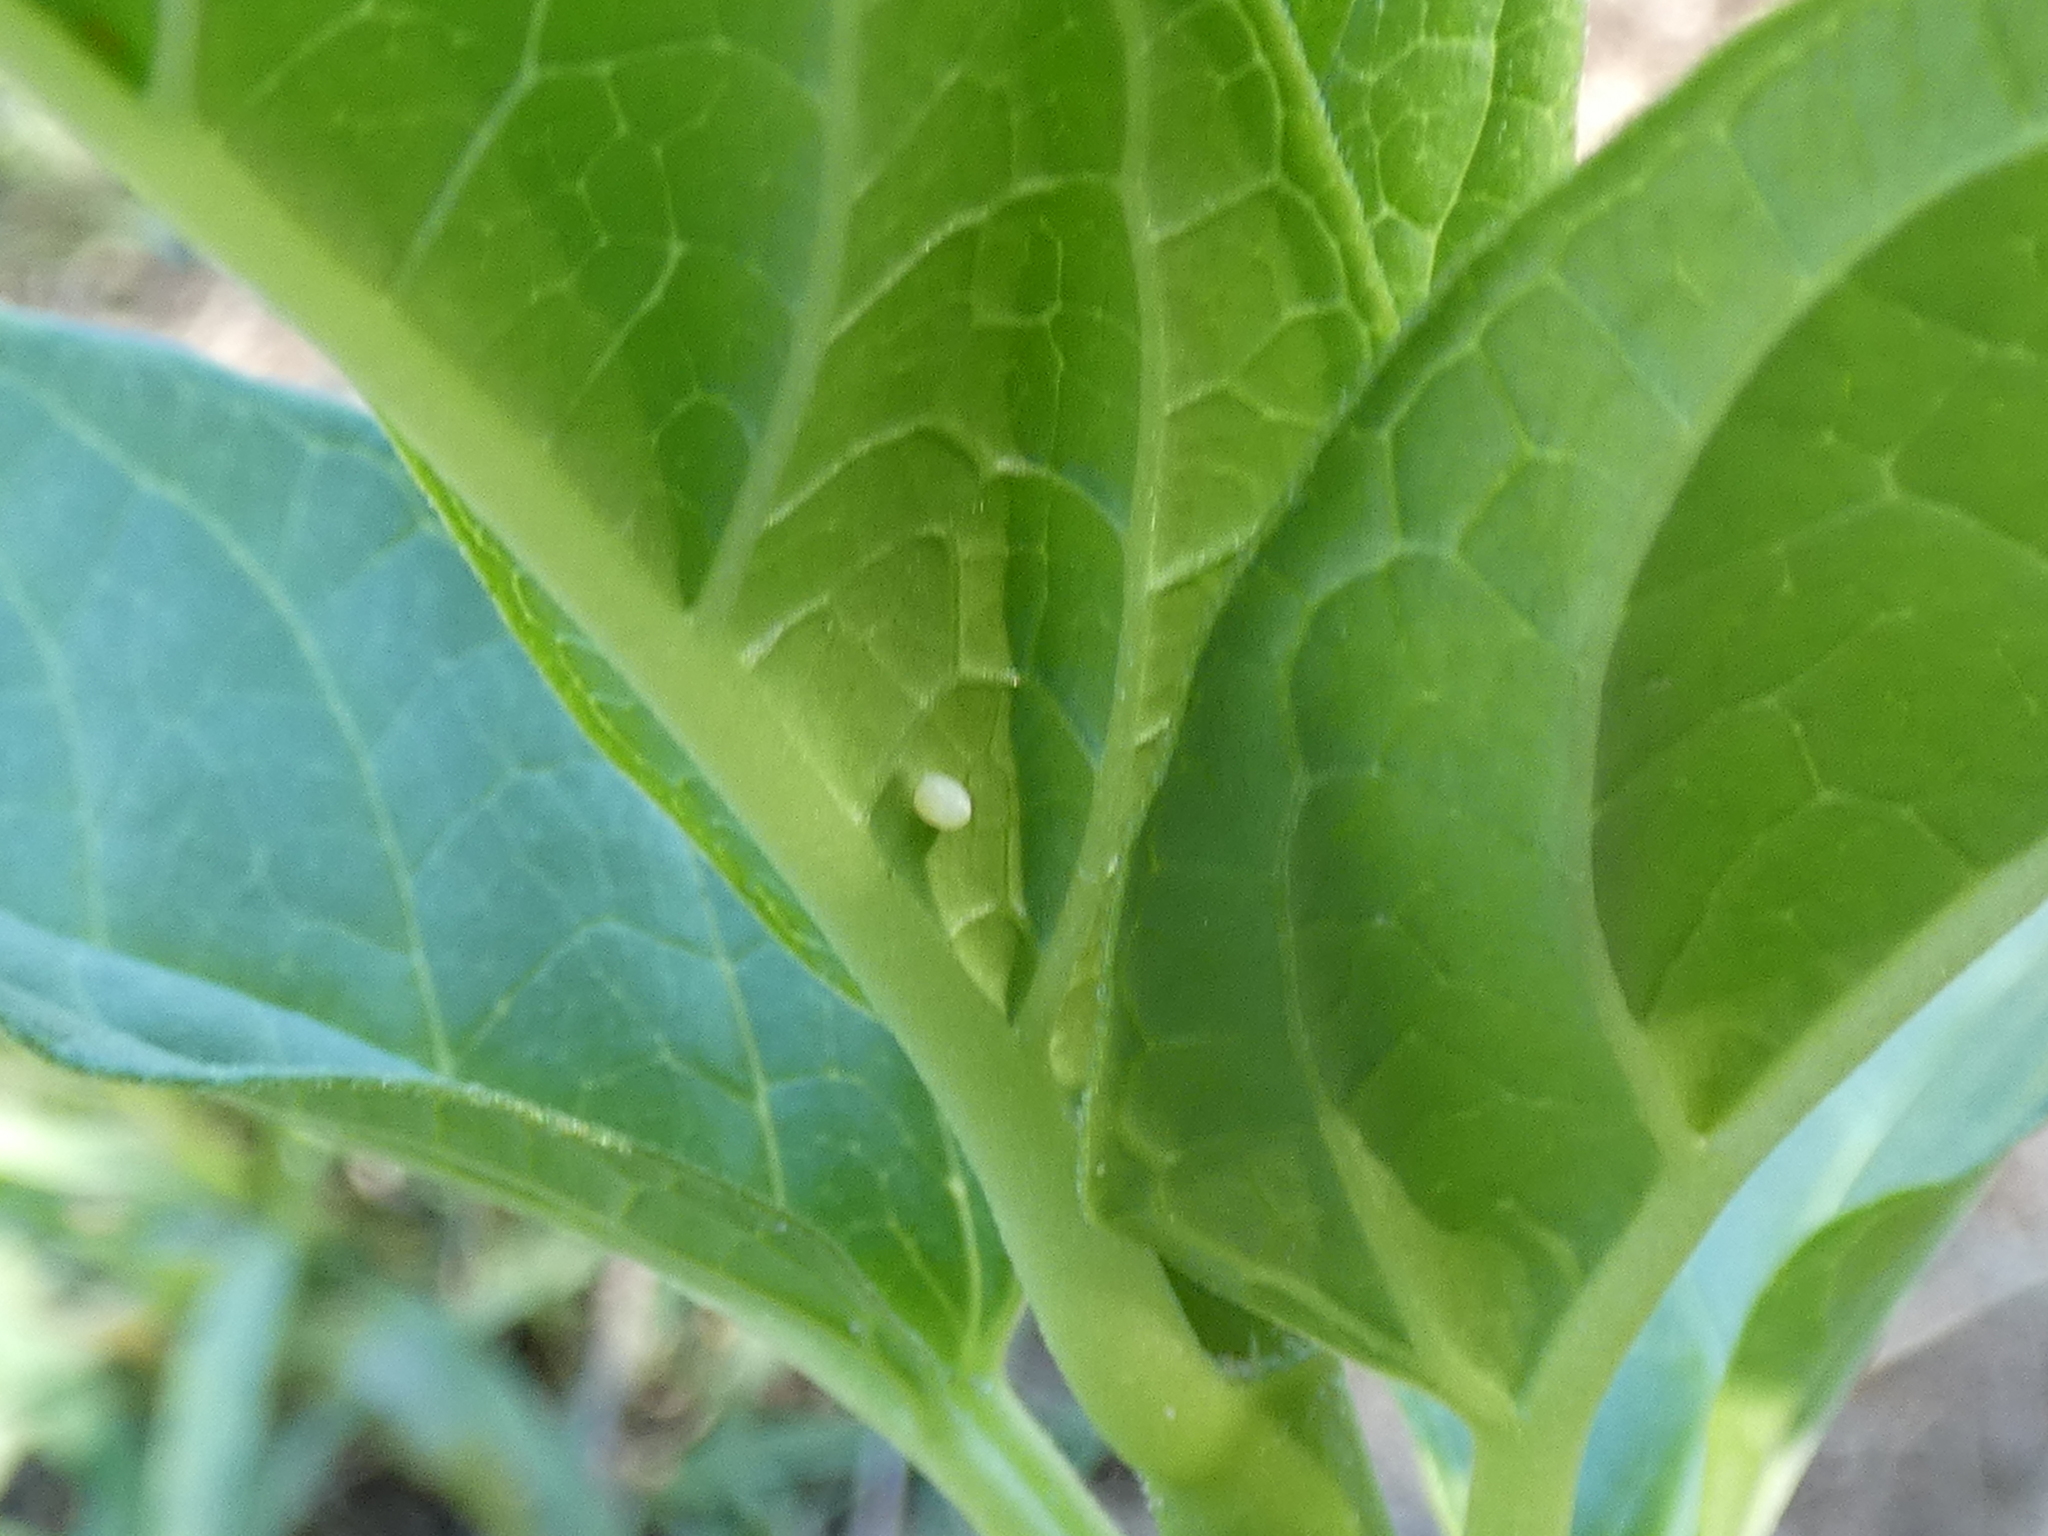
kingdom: Animalia
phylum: Arthropoda
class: Insecta
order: Lepidoptera
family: Nymphalidae
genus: Danaus
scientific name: Danaus plexippus
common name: Monarch
